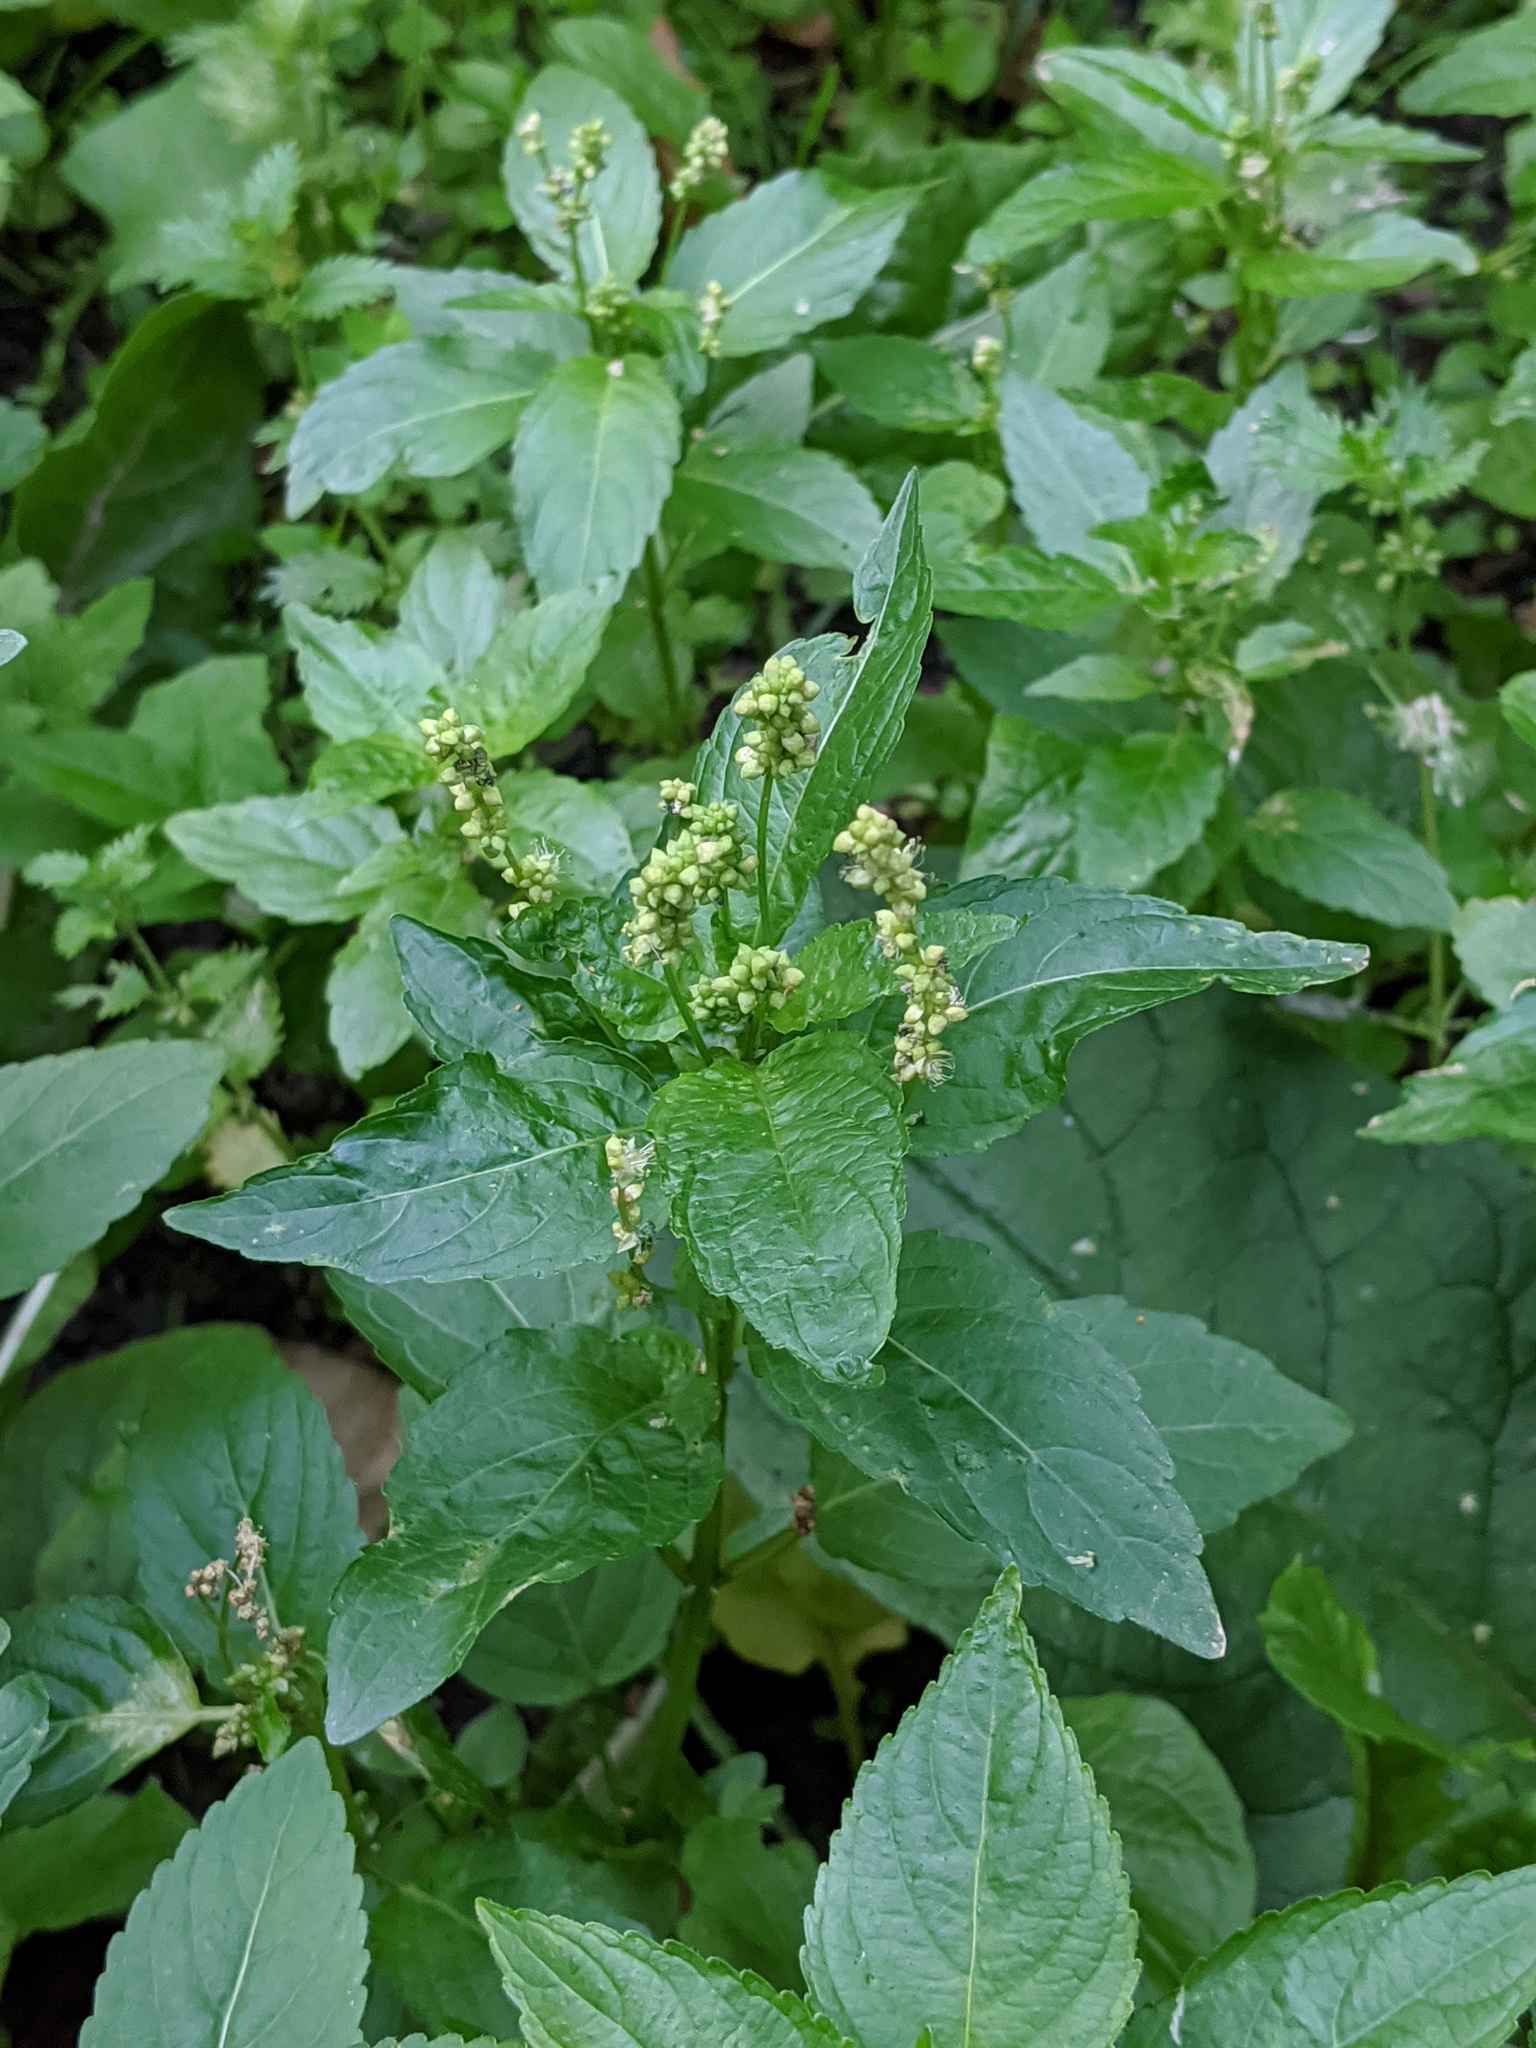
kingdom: Plantae
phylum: Tracheophyta
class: Magnoliopsida
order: Malpighiales
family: Euphorbiaceae
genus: Mercurialis
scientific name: Mercurialis annua
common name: Annual mercury
